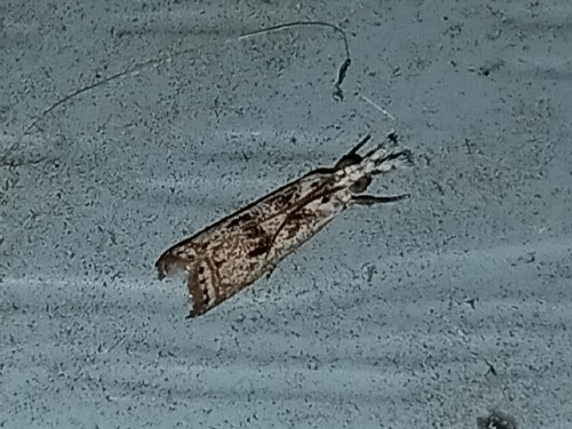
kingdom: Animalia
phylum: Arthropoda
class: Insecta
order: Lepidoptera
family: Crambidae
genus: Microcrambus
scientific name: Microcrambus elegans
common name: Elegant grass-veneer
